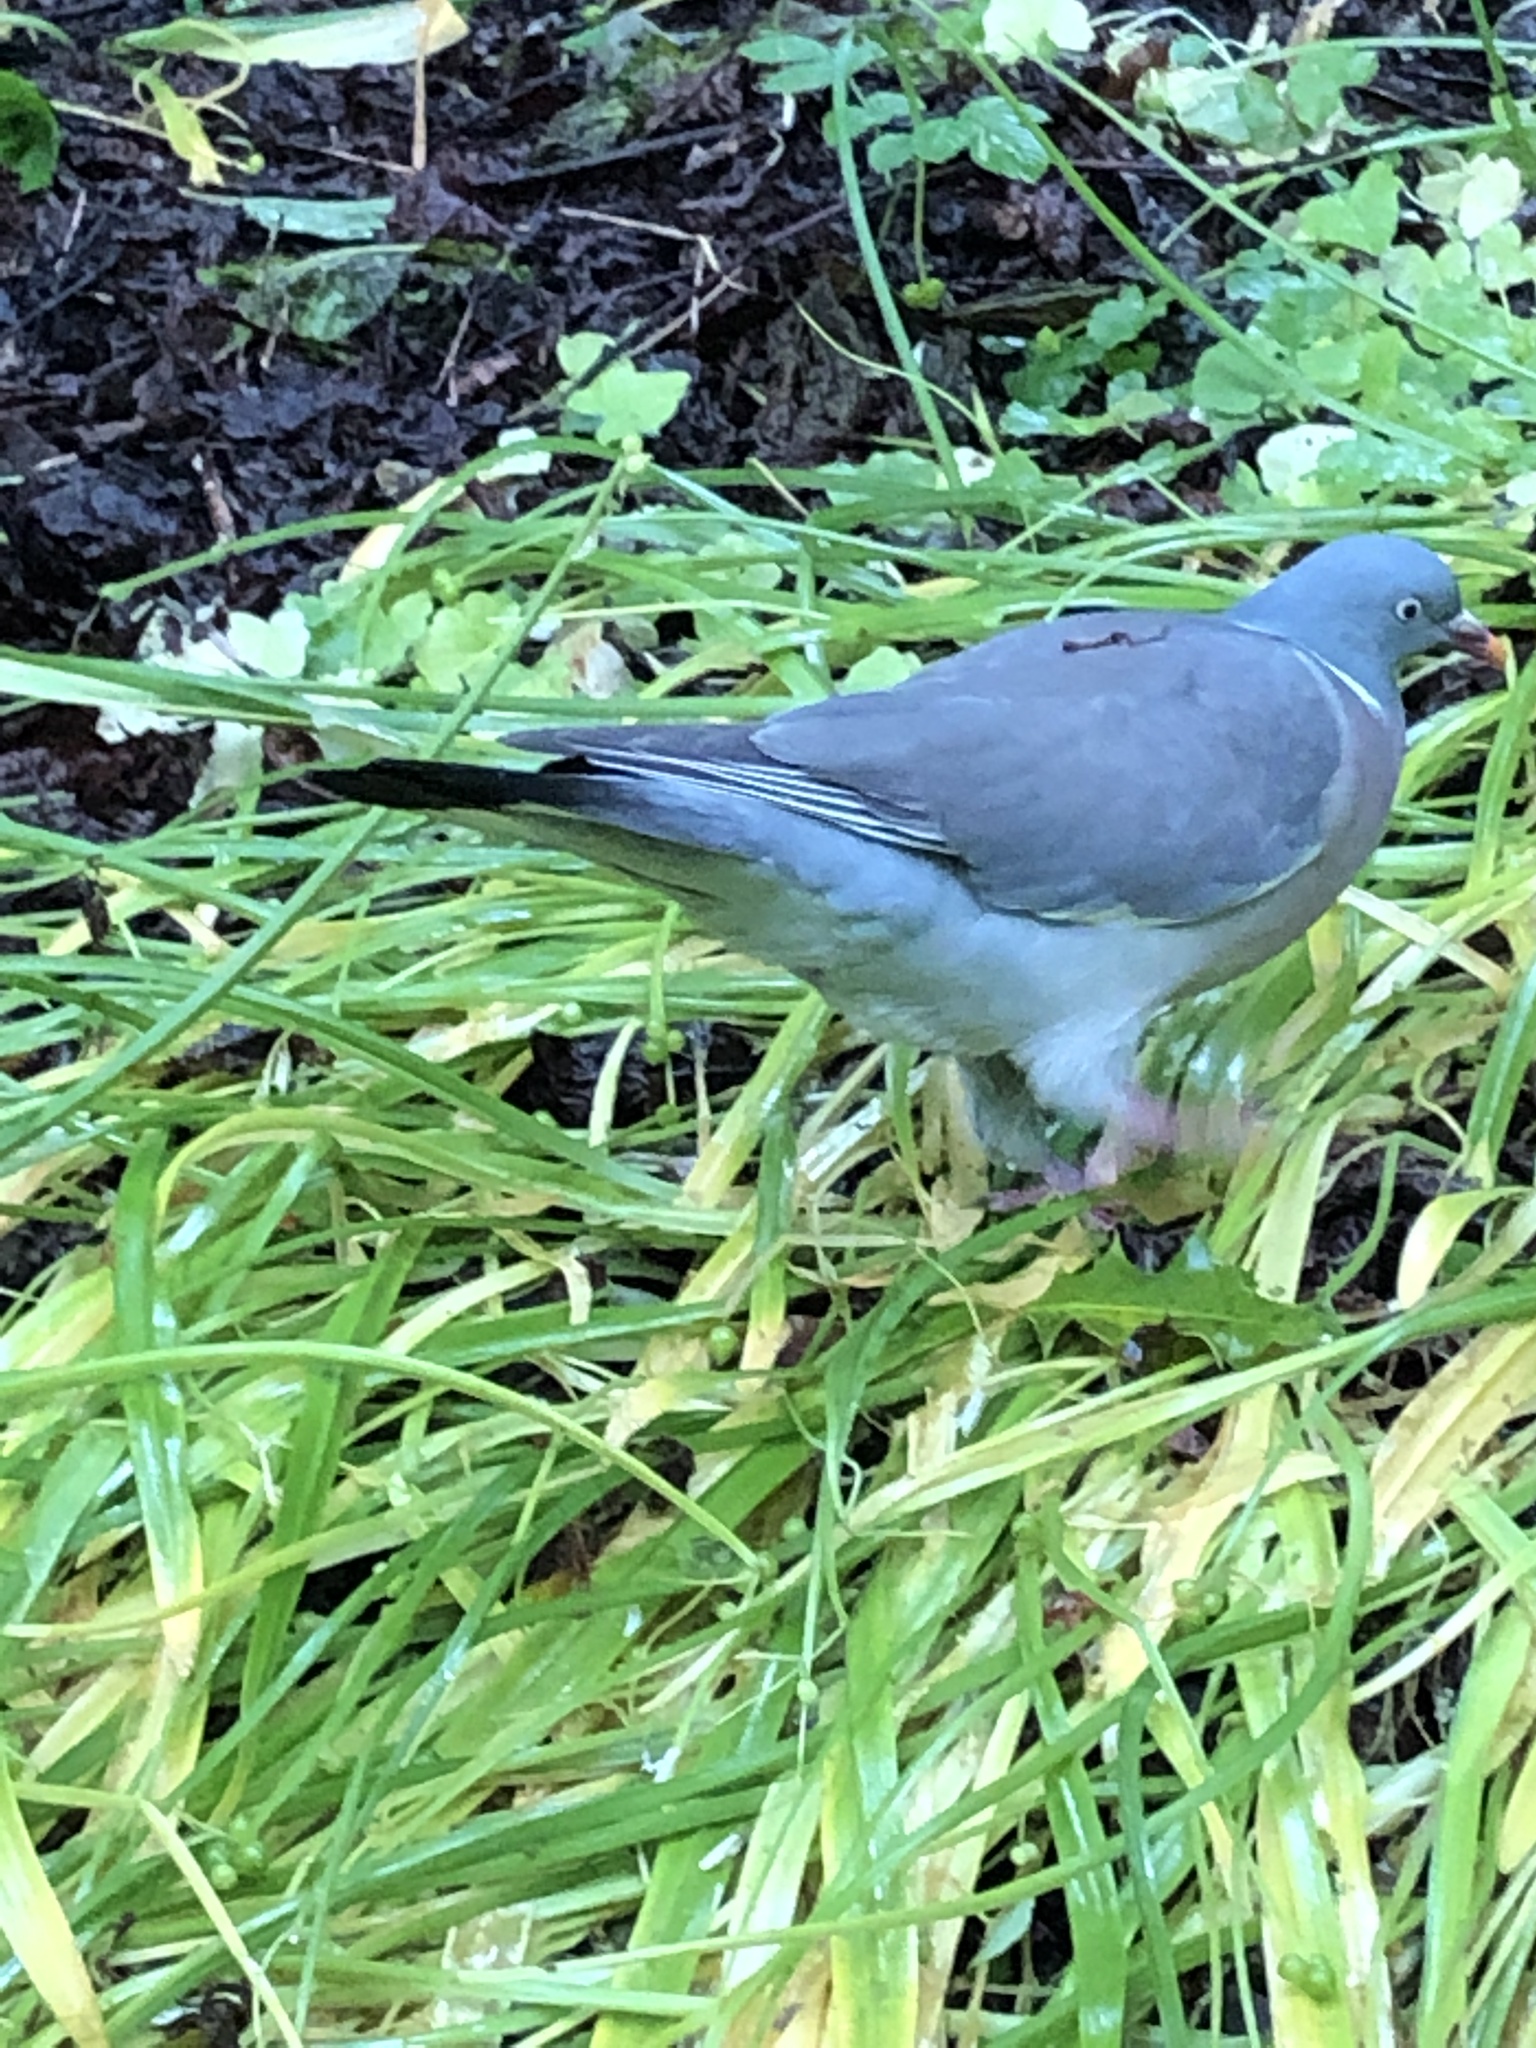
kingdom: Animalia
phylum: Chordata
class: Aves
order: Columbiformes
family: Columbidae
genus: Columba
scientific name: Columba palumbus
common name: Common wood pigeon
